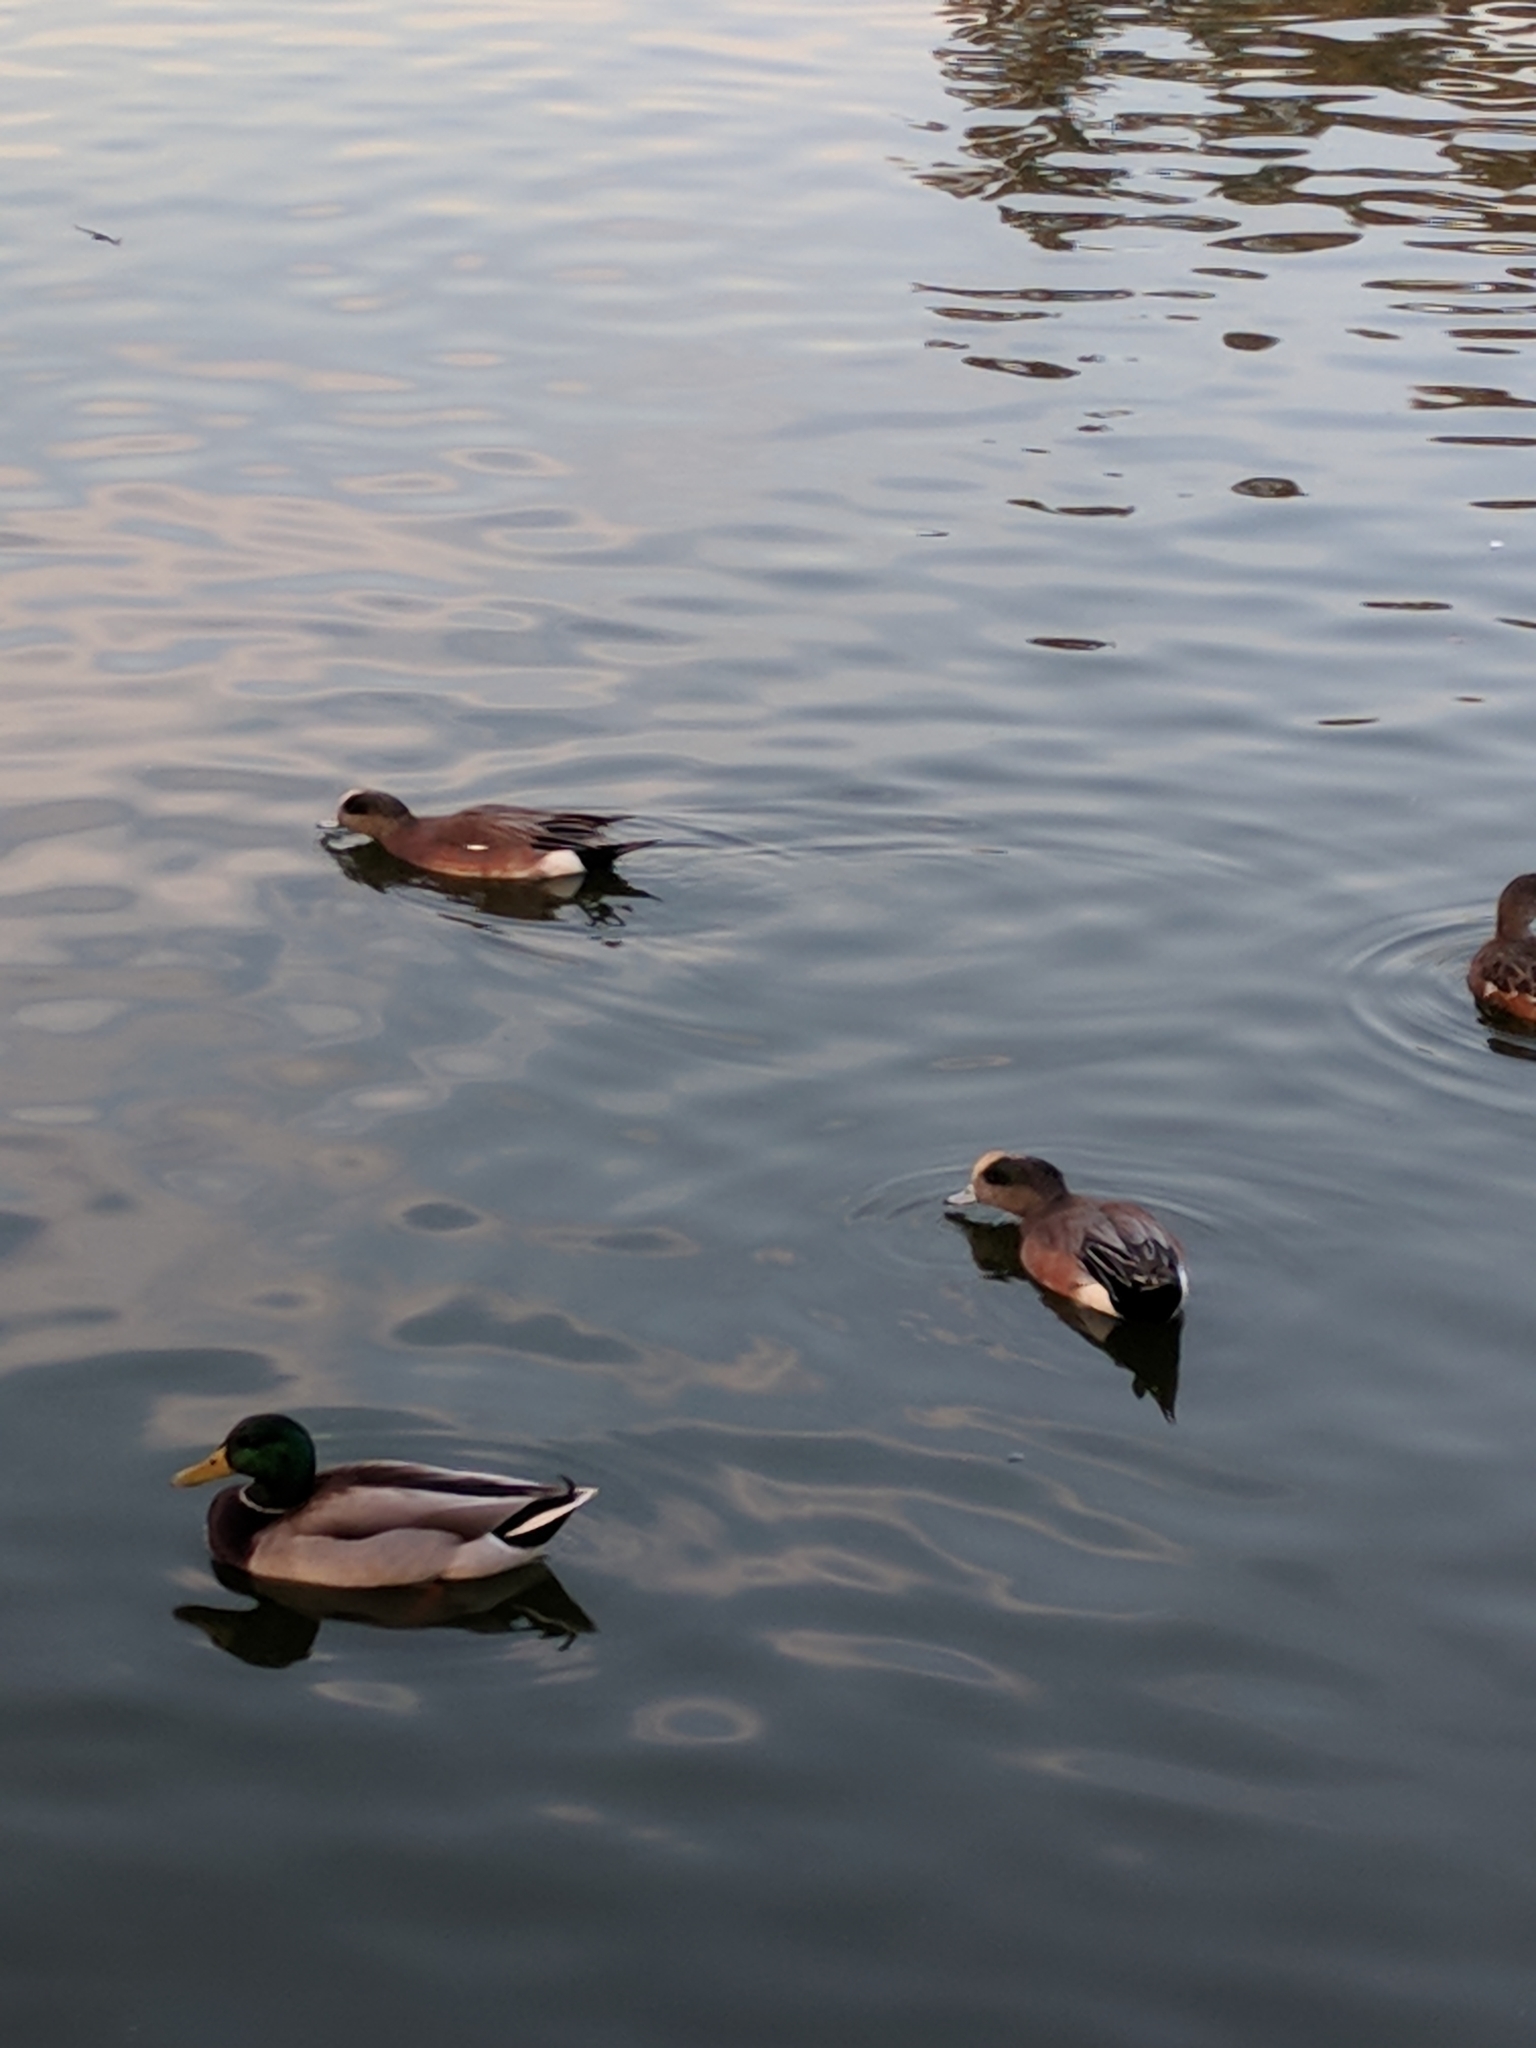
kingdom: Animalia
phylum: Chordata
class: Aves
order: Anseriformes
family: Anatidae
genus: Mareca
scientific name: Mareca americana
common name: American wigeon
